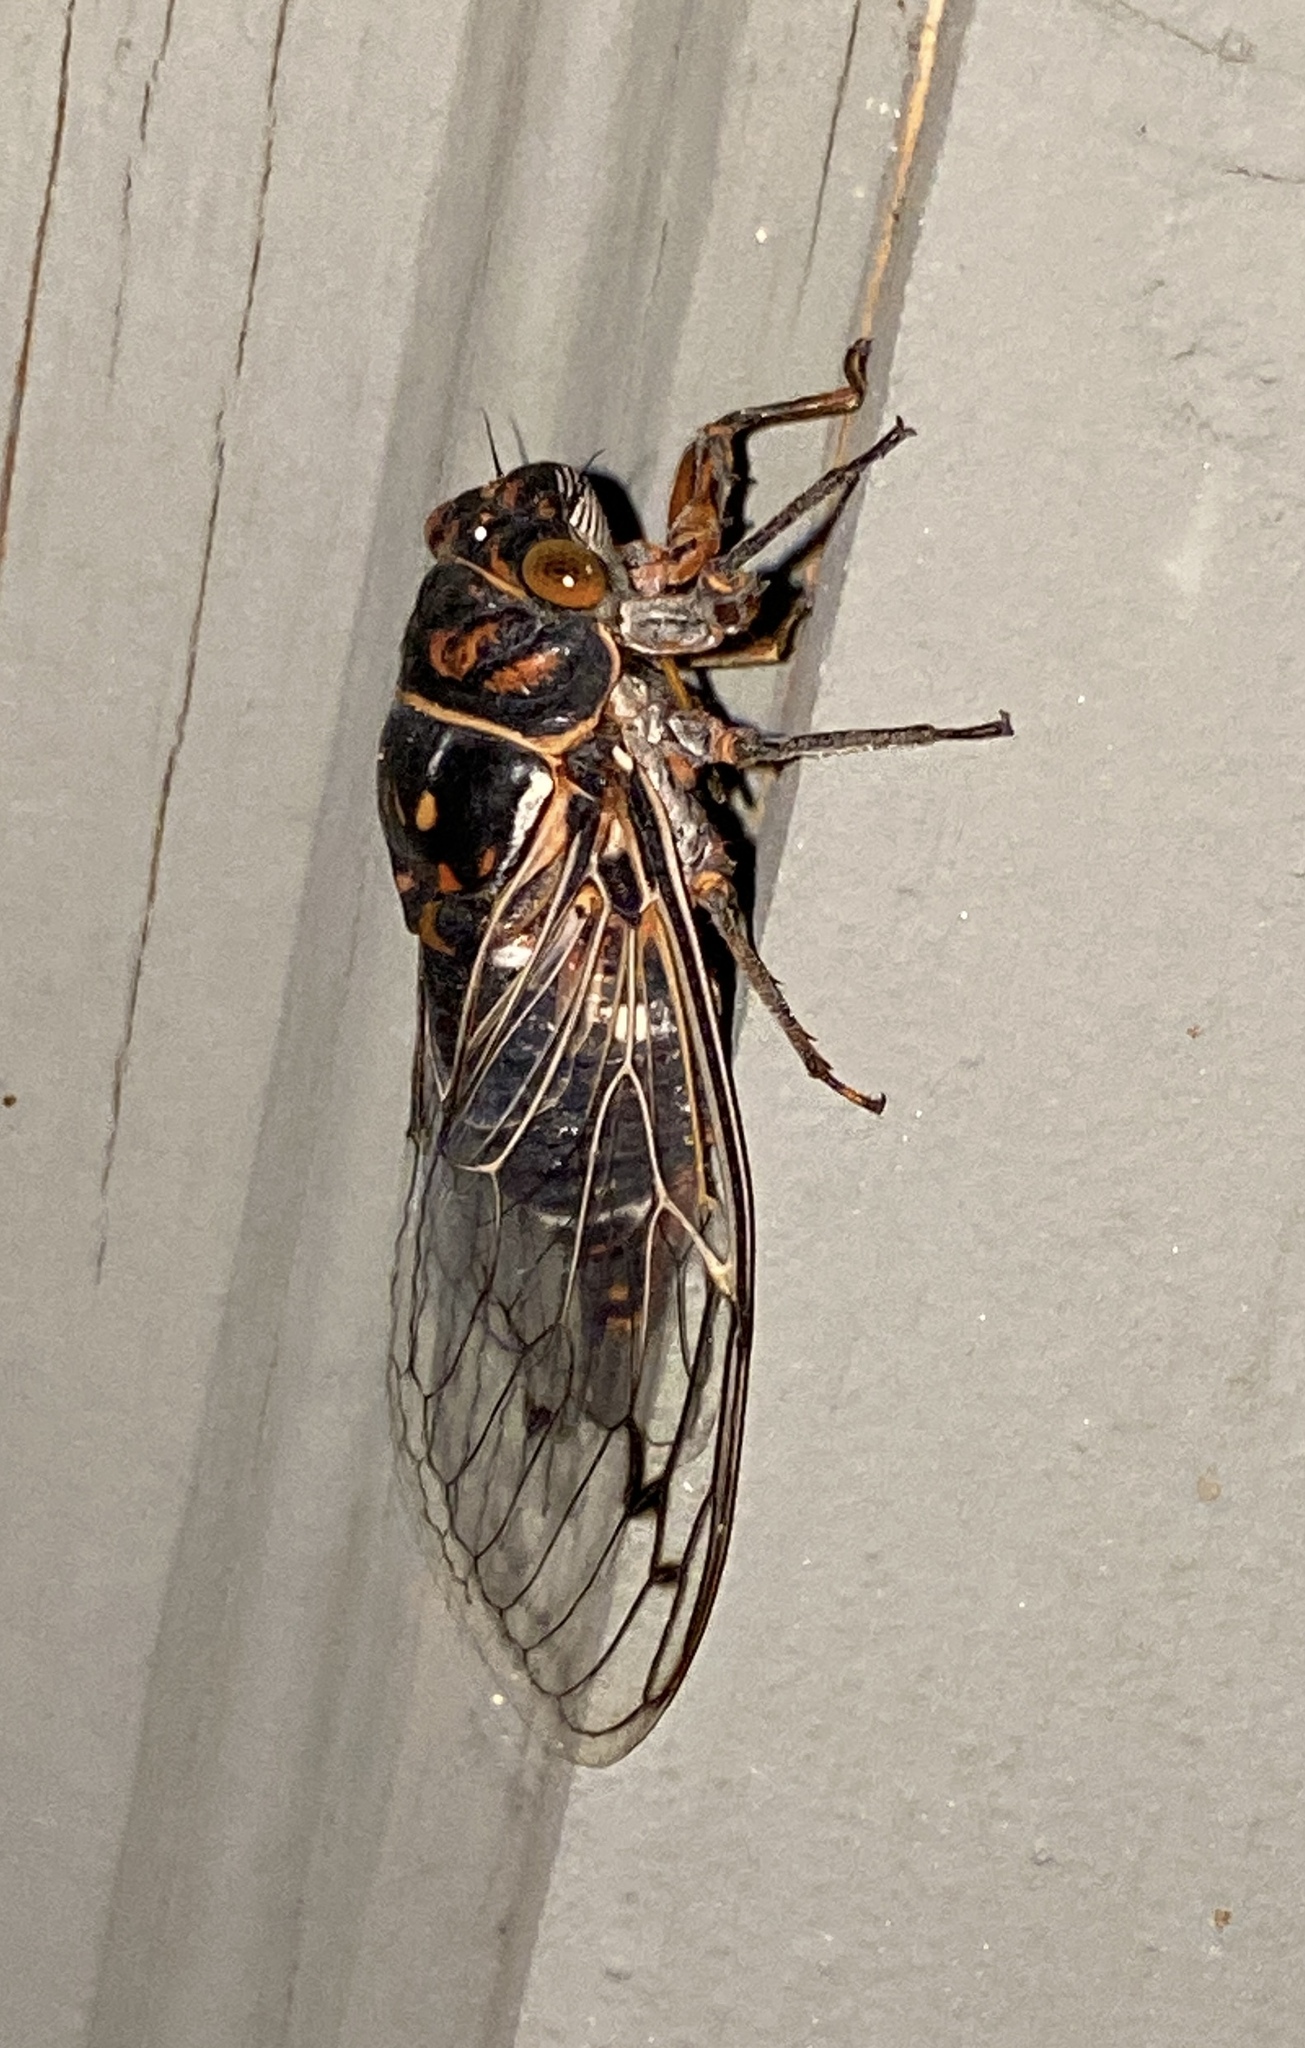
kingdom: Animalia
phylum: Arthropoda
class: Insecta
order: Hemiptera
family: Cicadidae
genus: Hadoa
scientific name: Hadoa duryi
